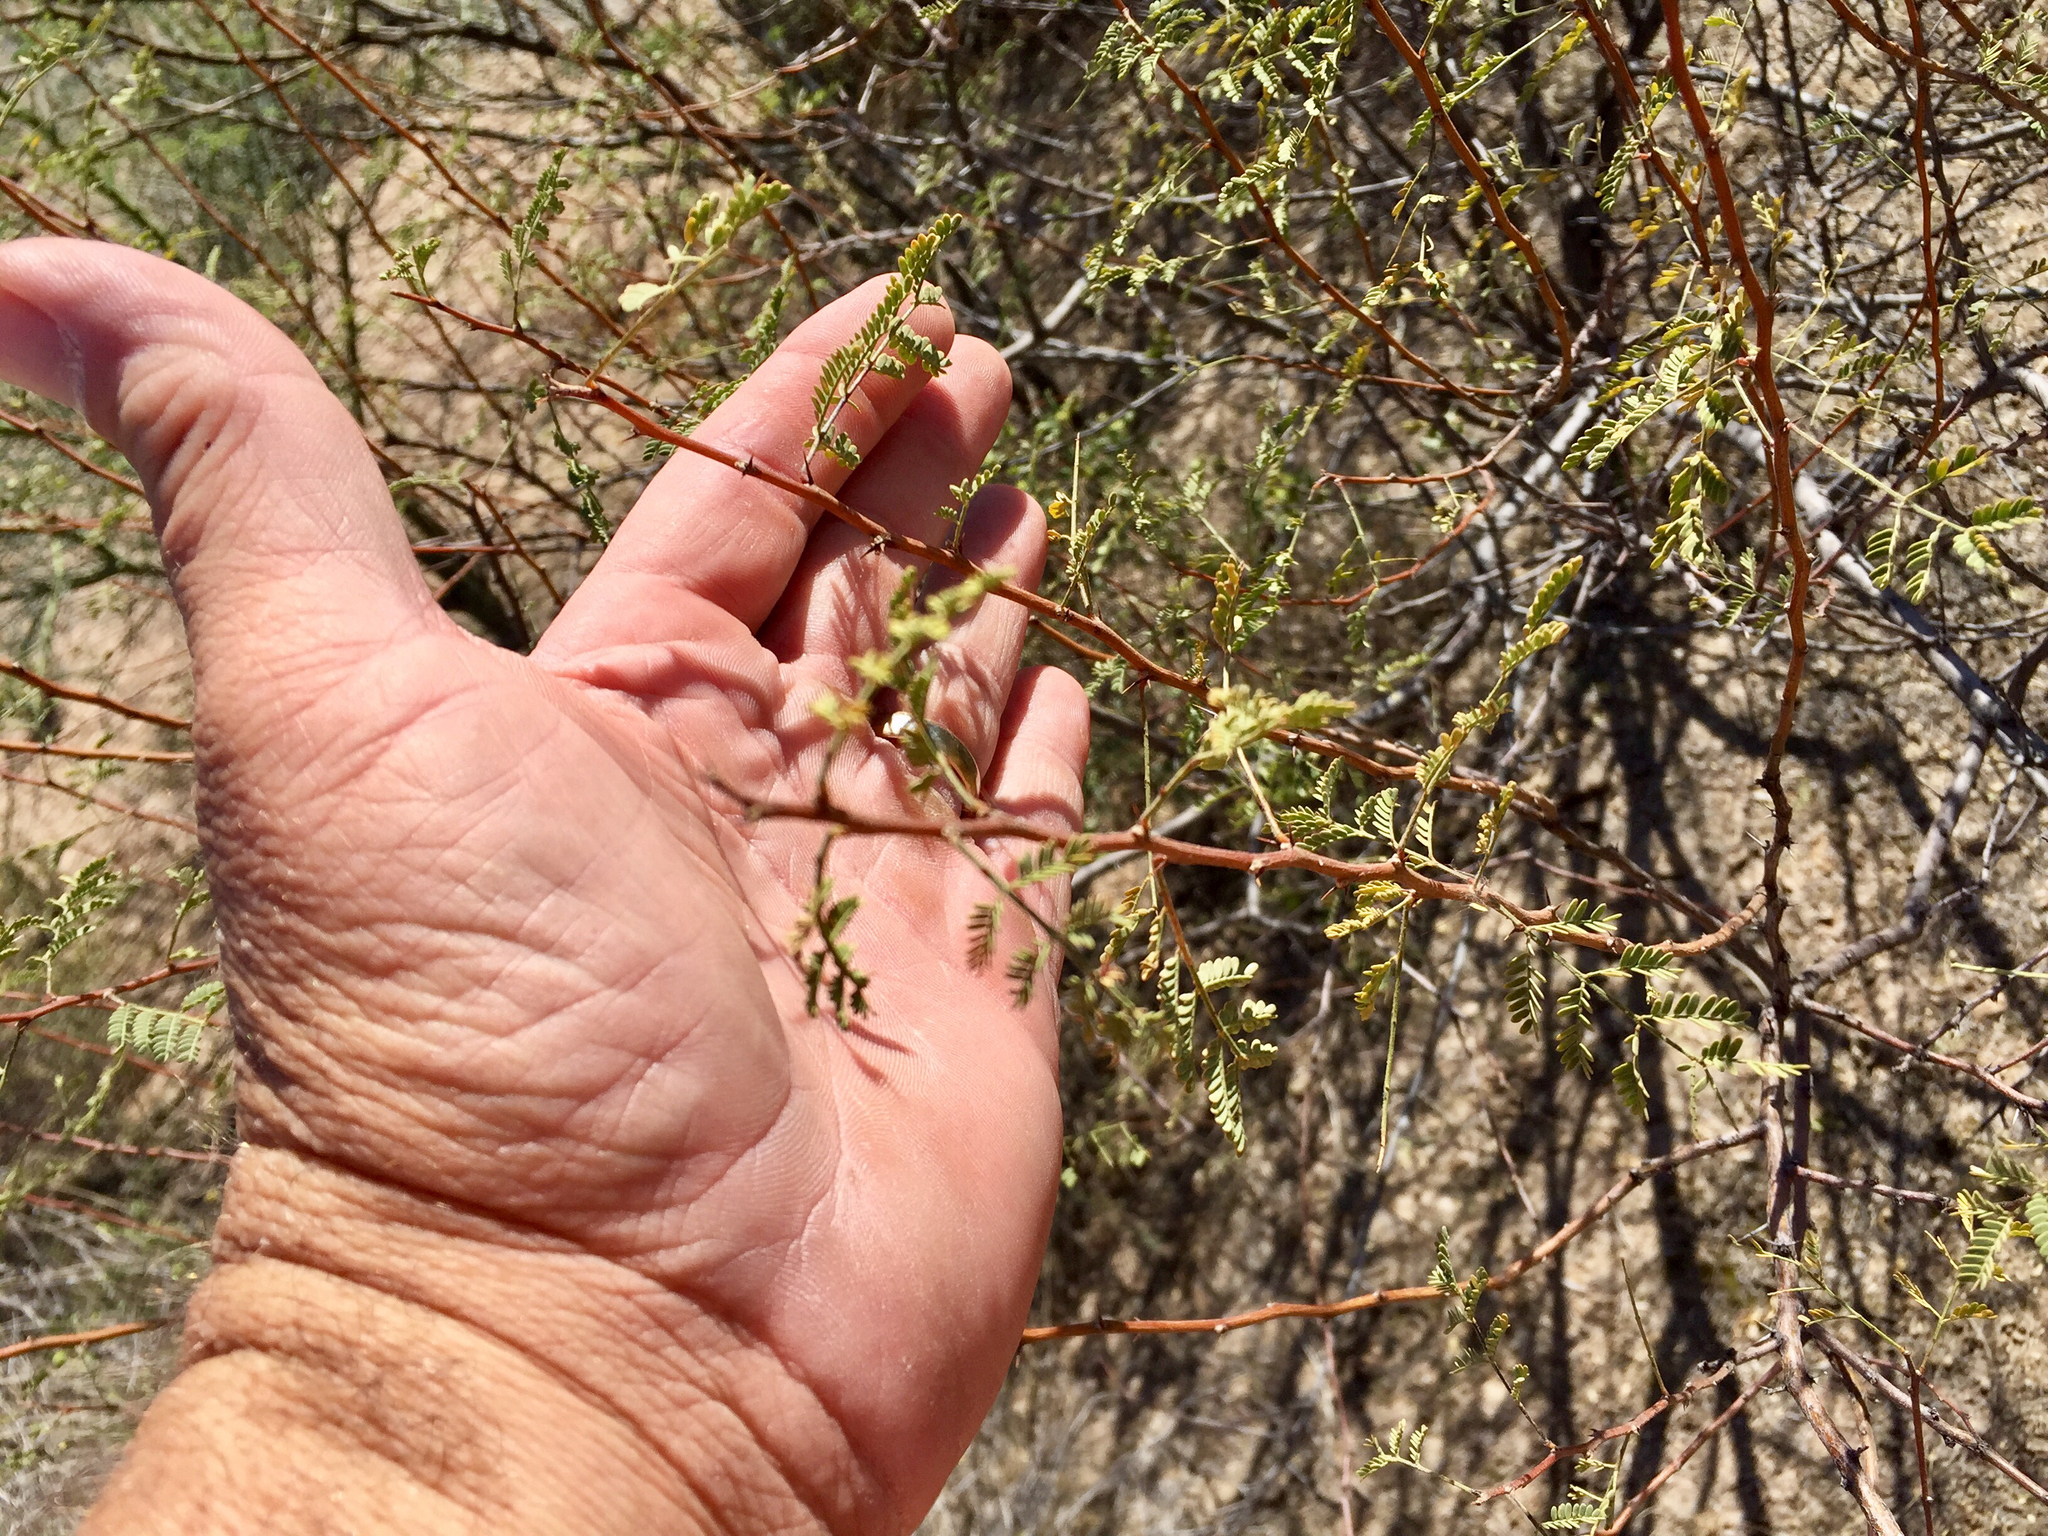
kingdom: Plantae
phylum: Tracheophyta
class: Magnoliopsida
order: Fabales
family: Fabaceae
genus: Vachellia
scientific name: Vachellia constricta
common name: Mescat acacia
